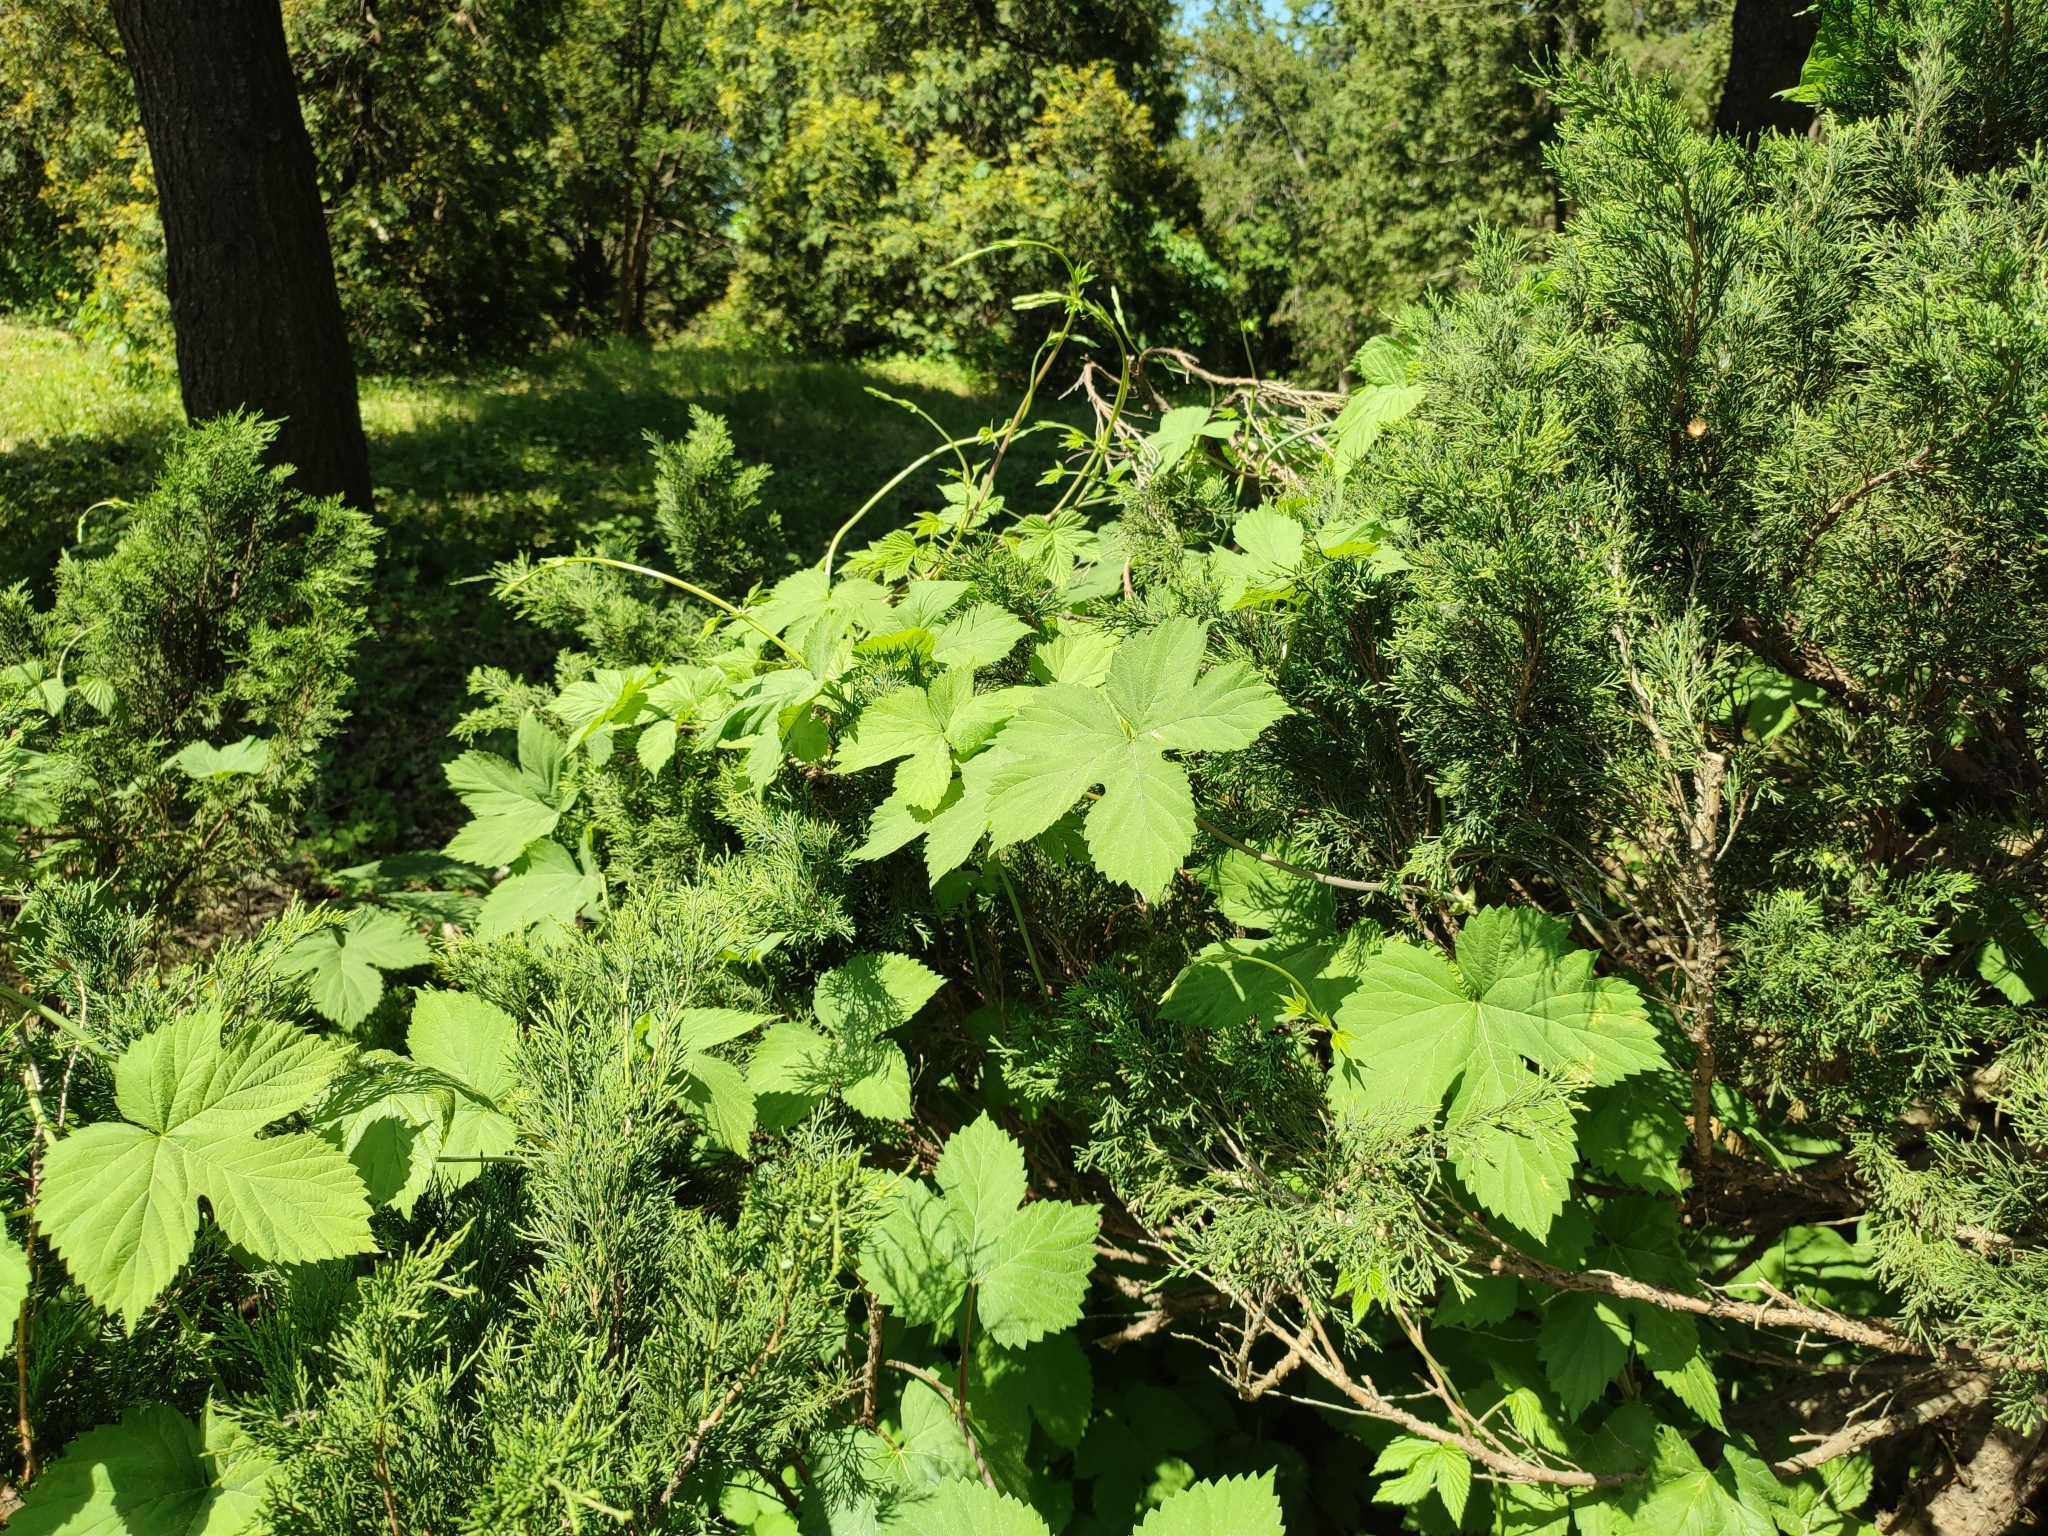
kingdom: Plantae
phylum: Tracheophyta
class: Magnoliopsida
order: Rosales
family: Cannabaceae
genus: Humulus
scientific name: Humulus lupulus
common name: Hop
